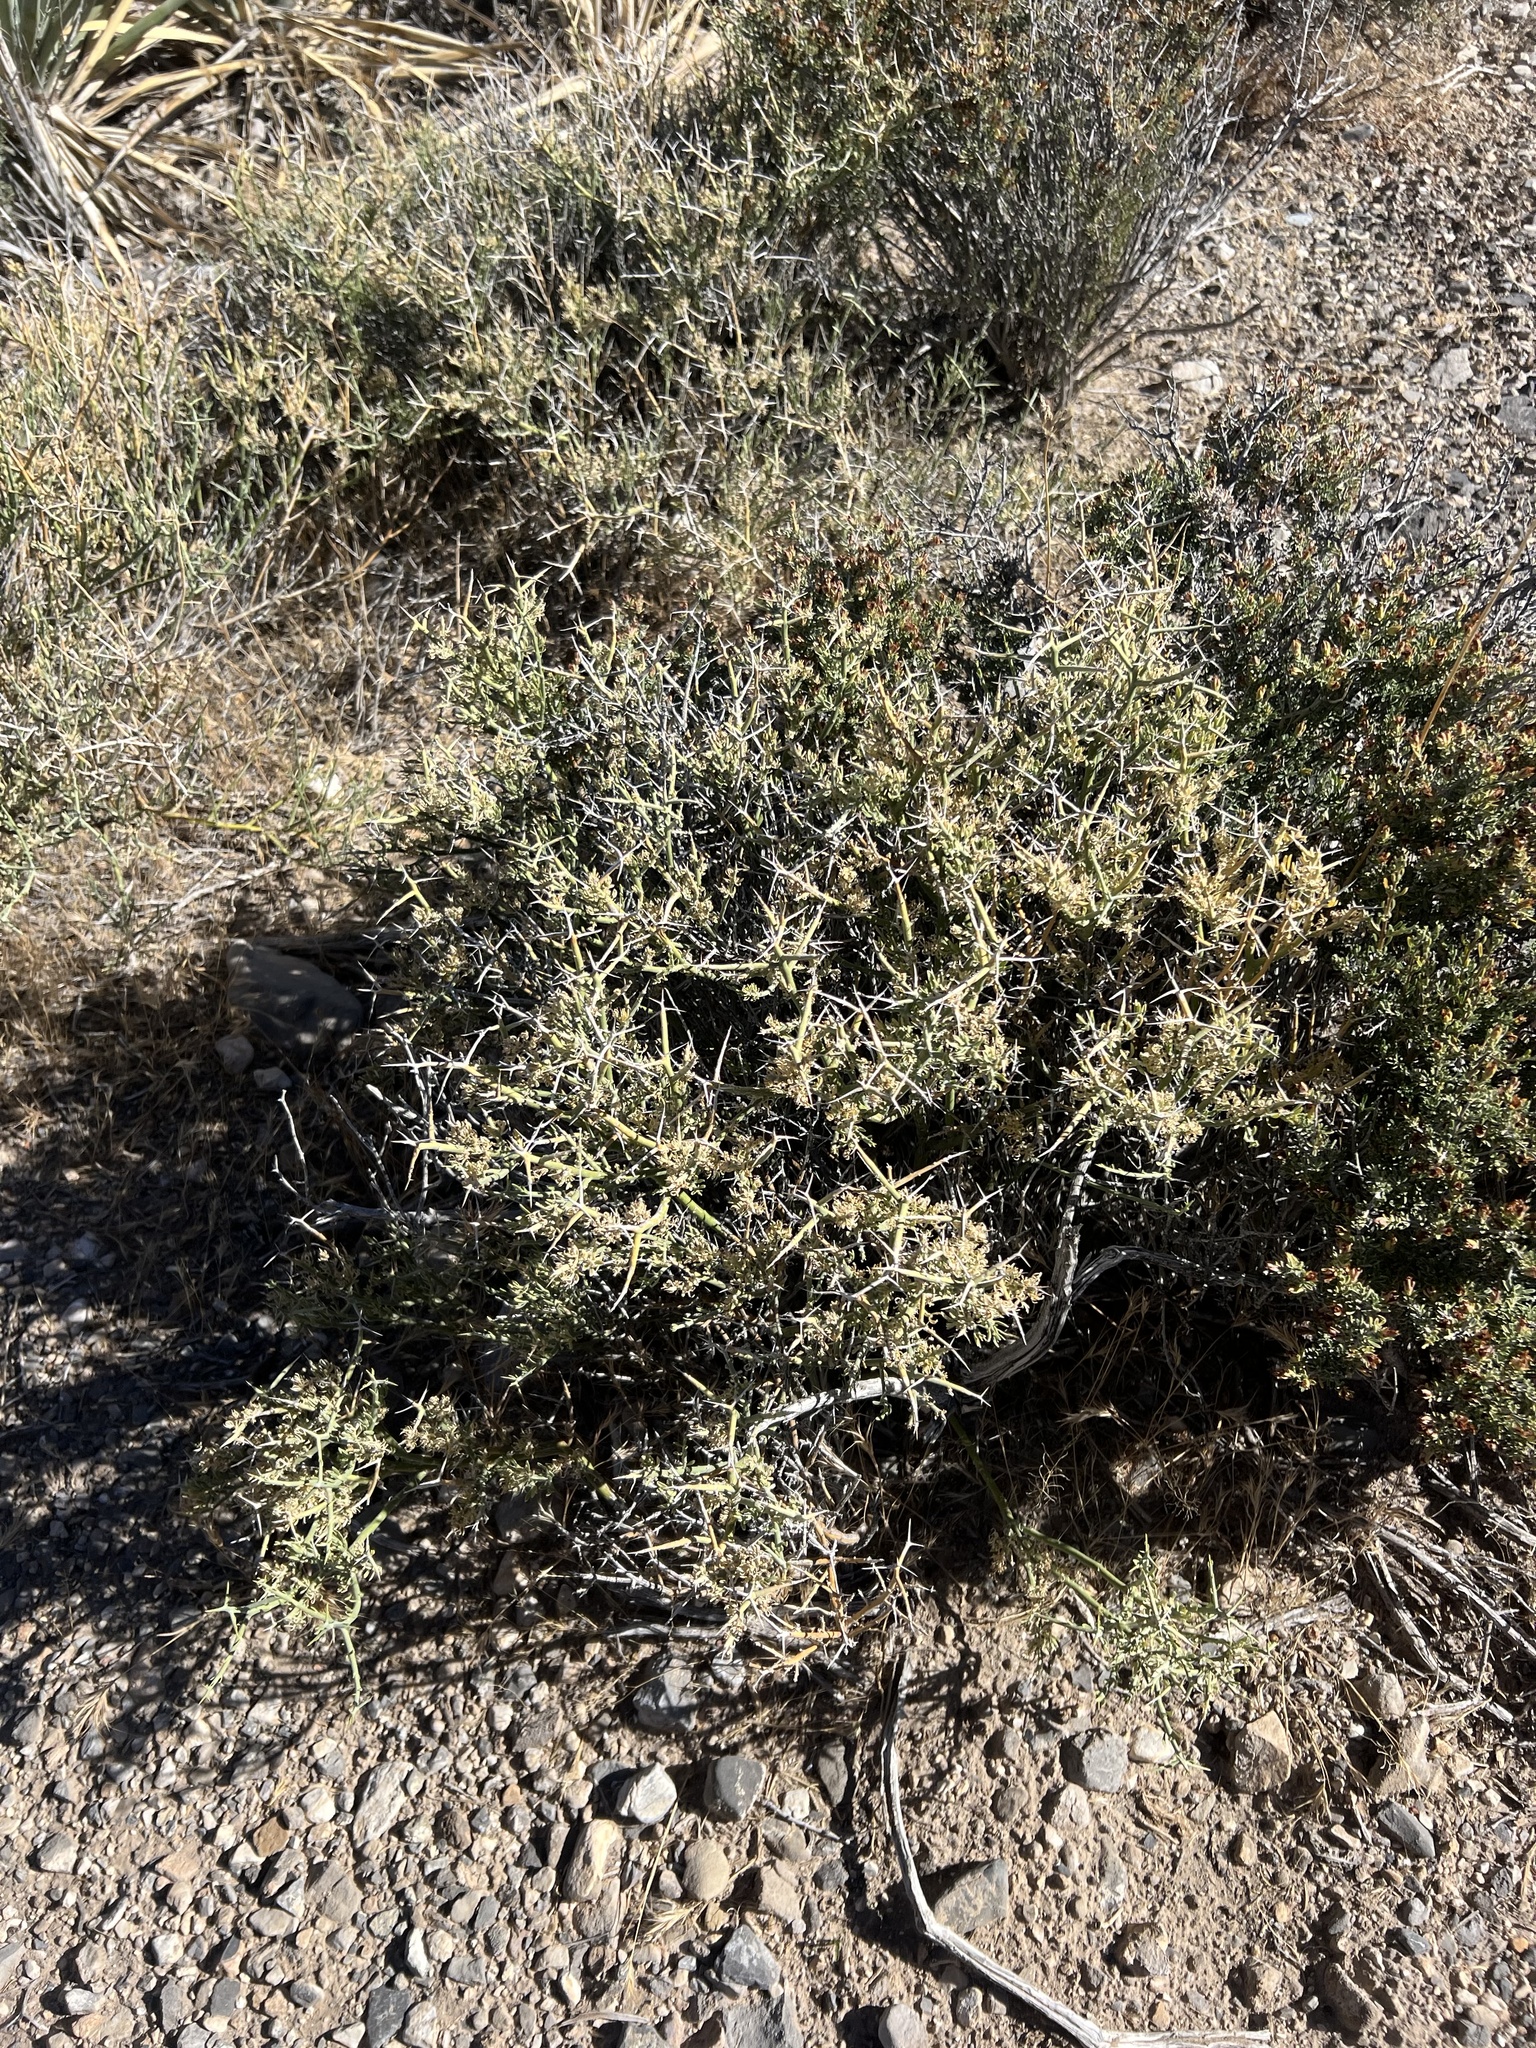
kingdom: Plantae
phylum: Tracheophyta
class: Magnoliopsida
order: Lamiales
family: Oleaceae
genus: Menodora
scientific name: Menodora spinescens
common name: Spiny menodora
